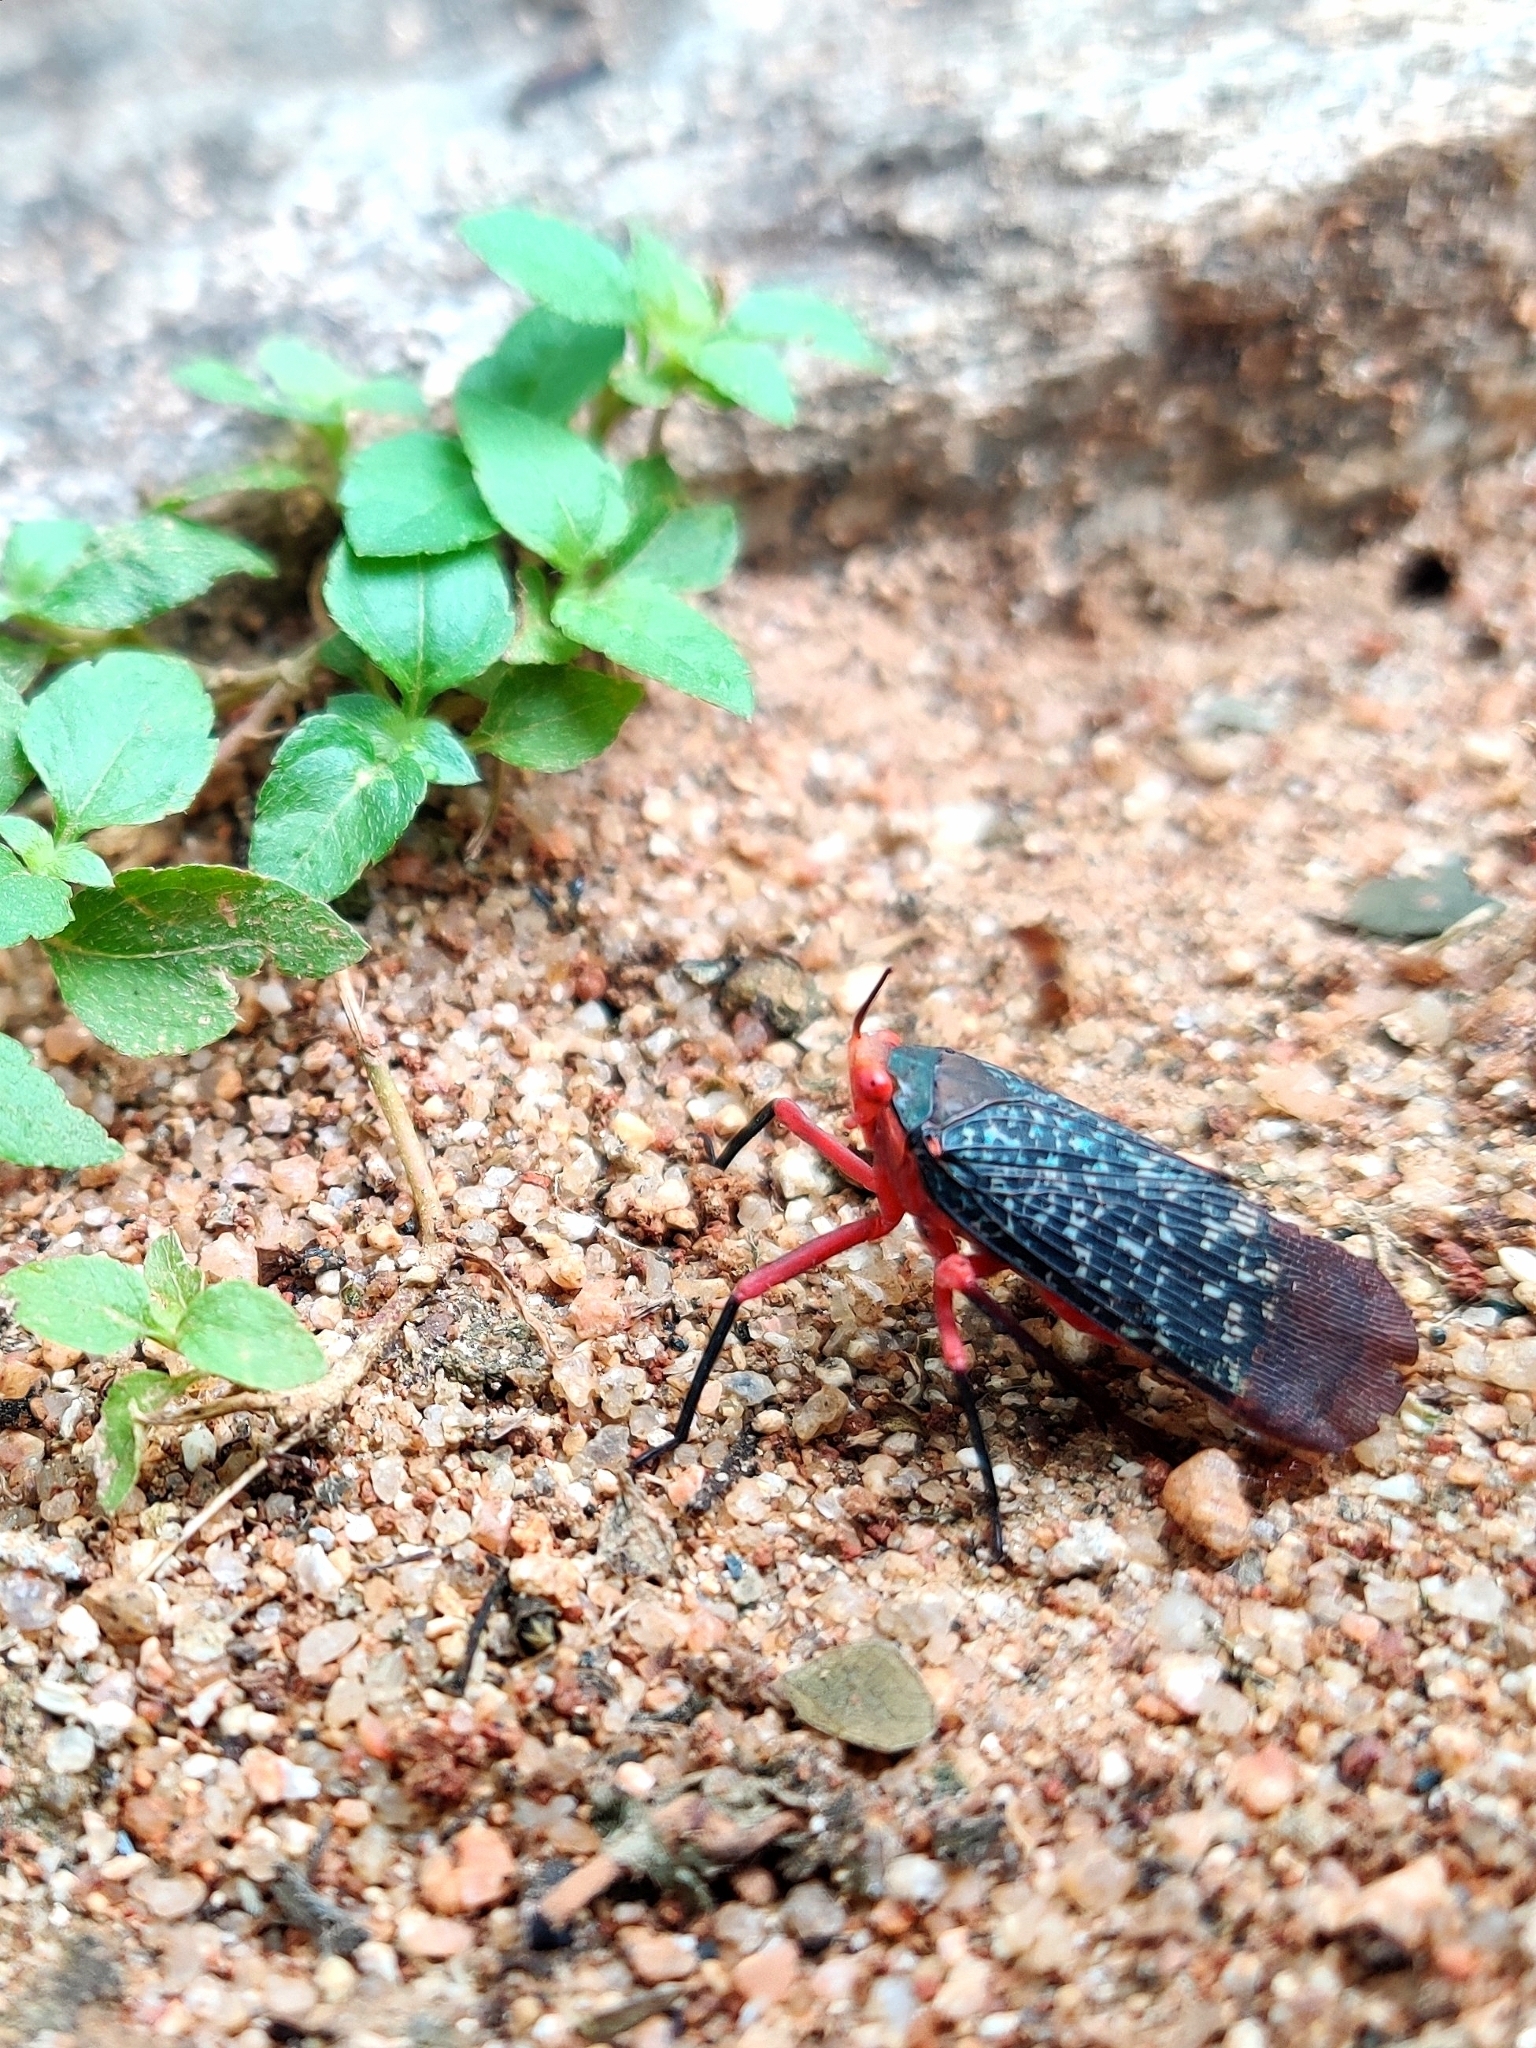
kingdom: Animalia
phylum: Arthropoda
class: Insecta
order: Hemiptera
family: Fulgoridae
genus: Kalidasa
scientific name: Kalidasa lanata
